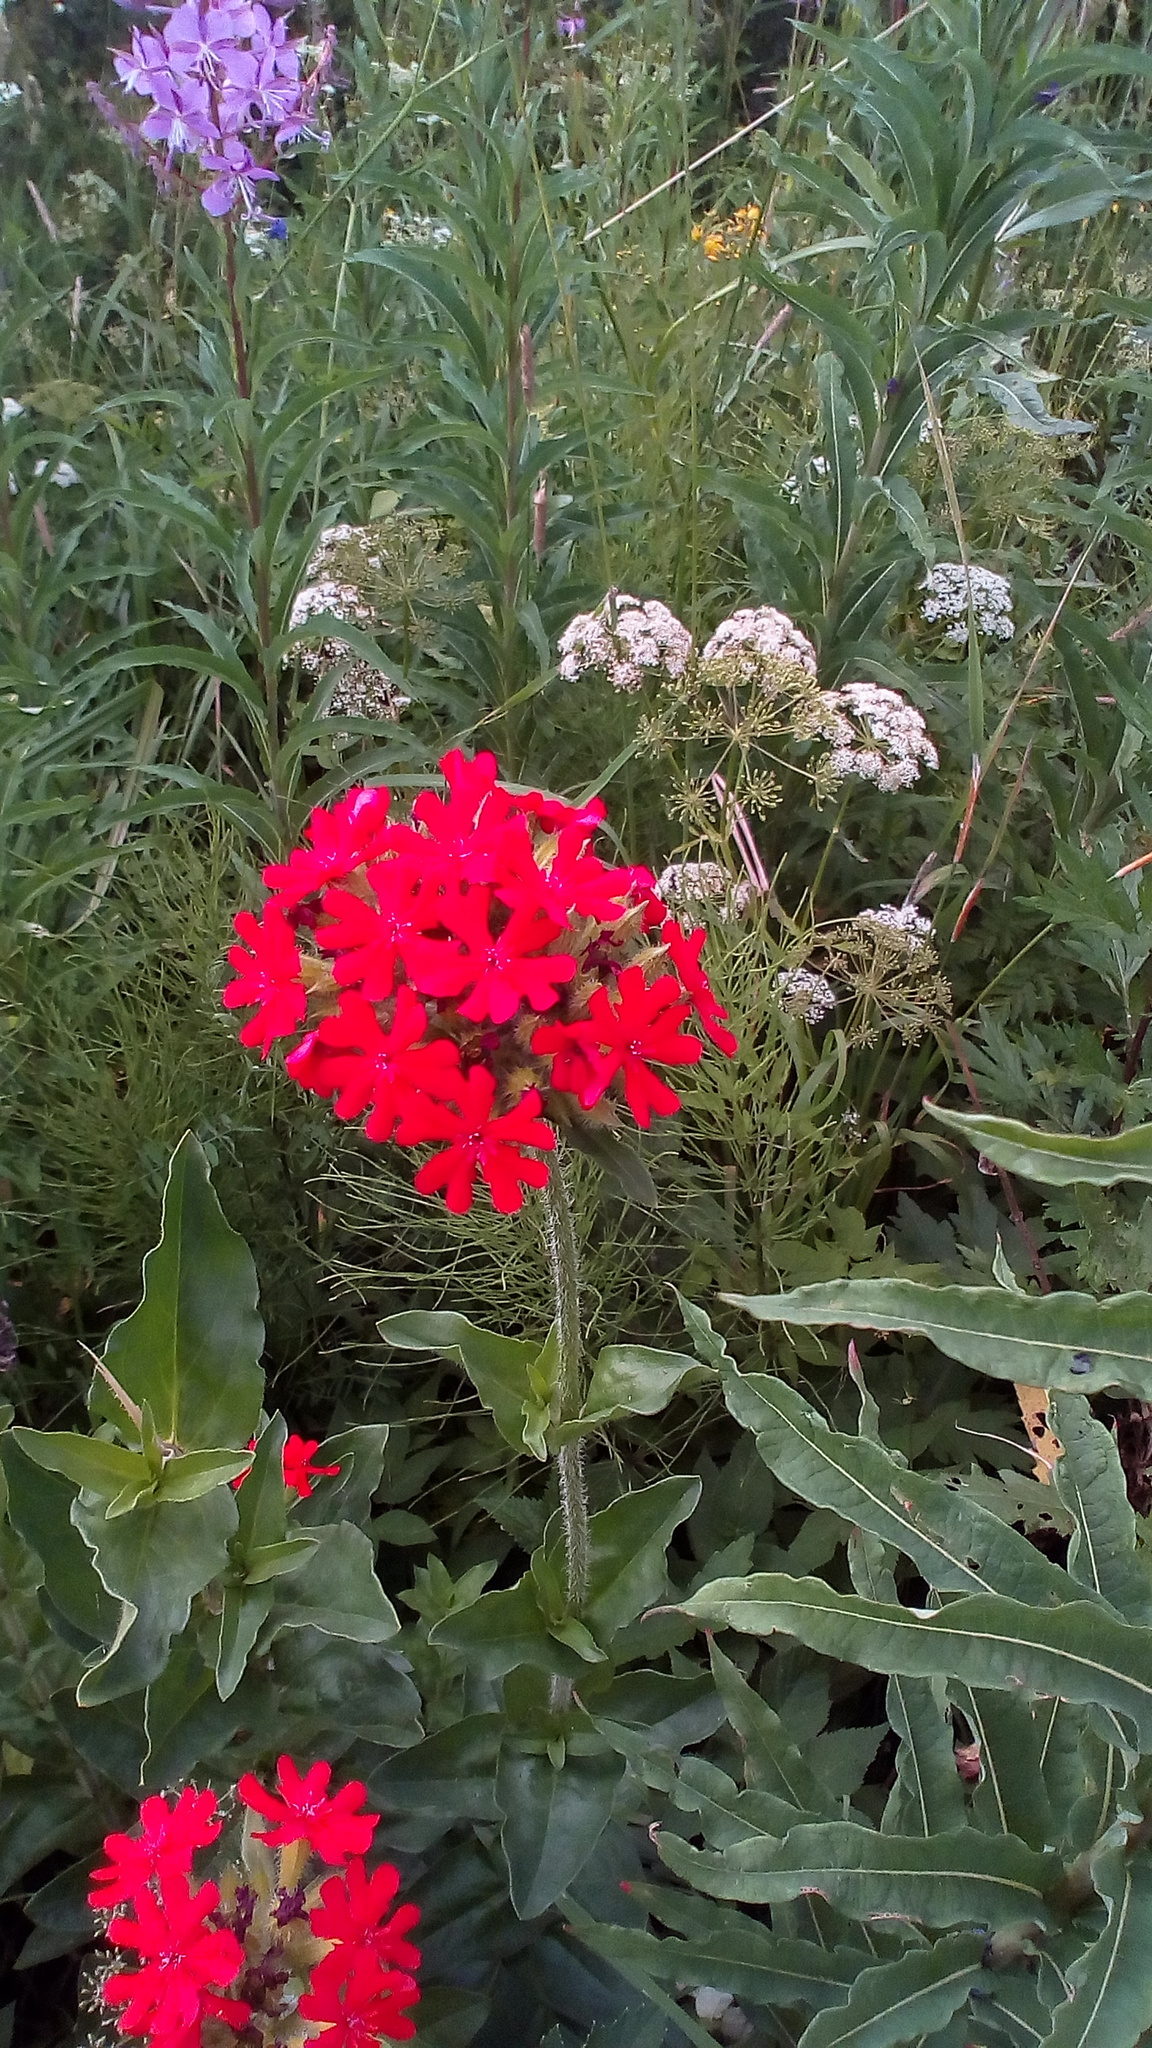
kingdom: Plantae
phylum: Tracheophyta
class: Magnoliopsida
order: Caryophyllales
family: Caryophyllaceae
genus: Silene
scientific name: Silene chalcedonica
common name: Maltese-cross
